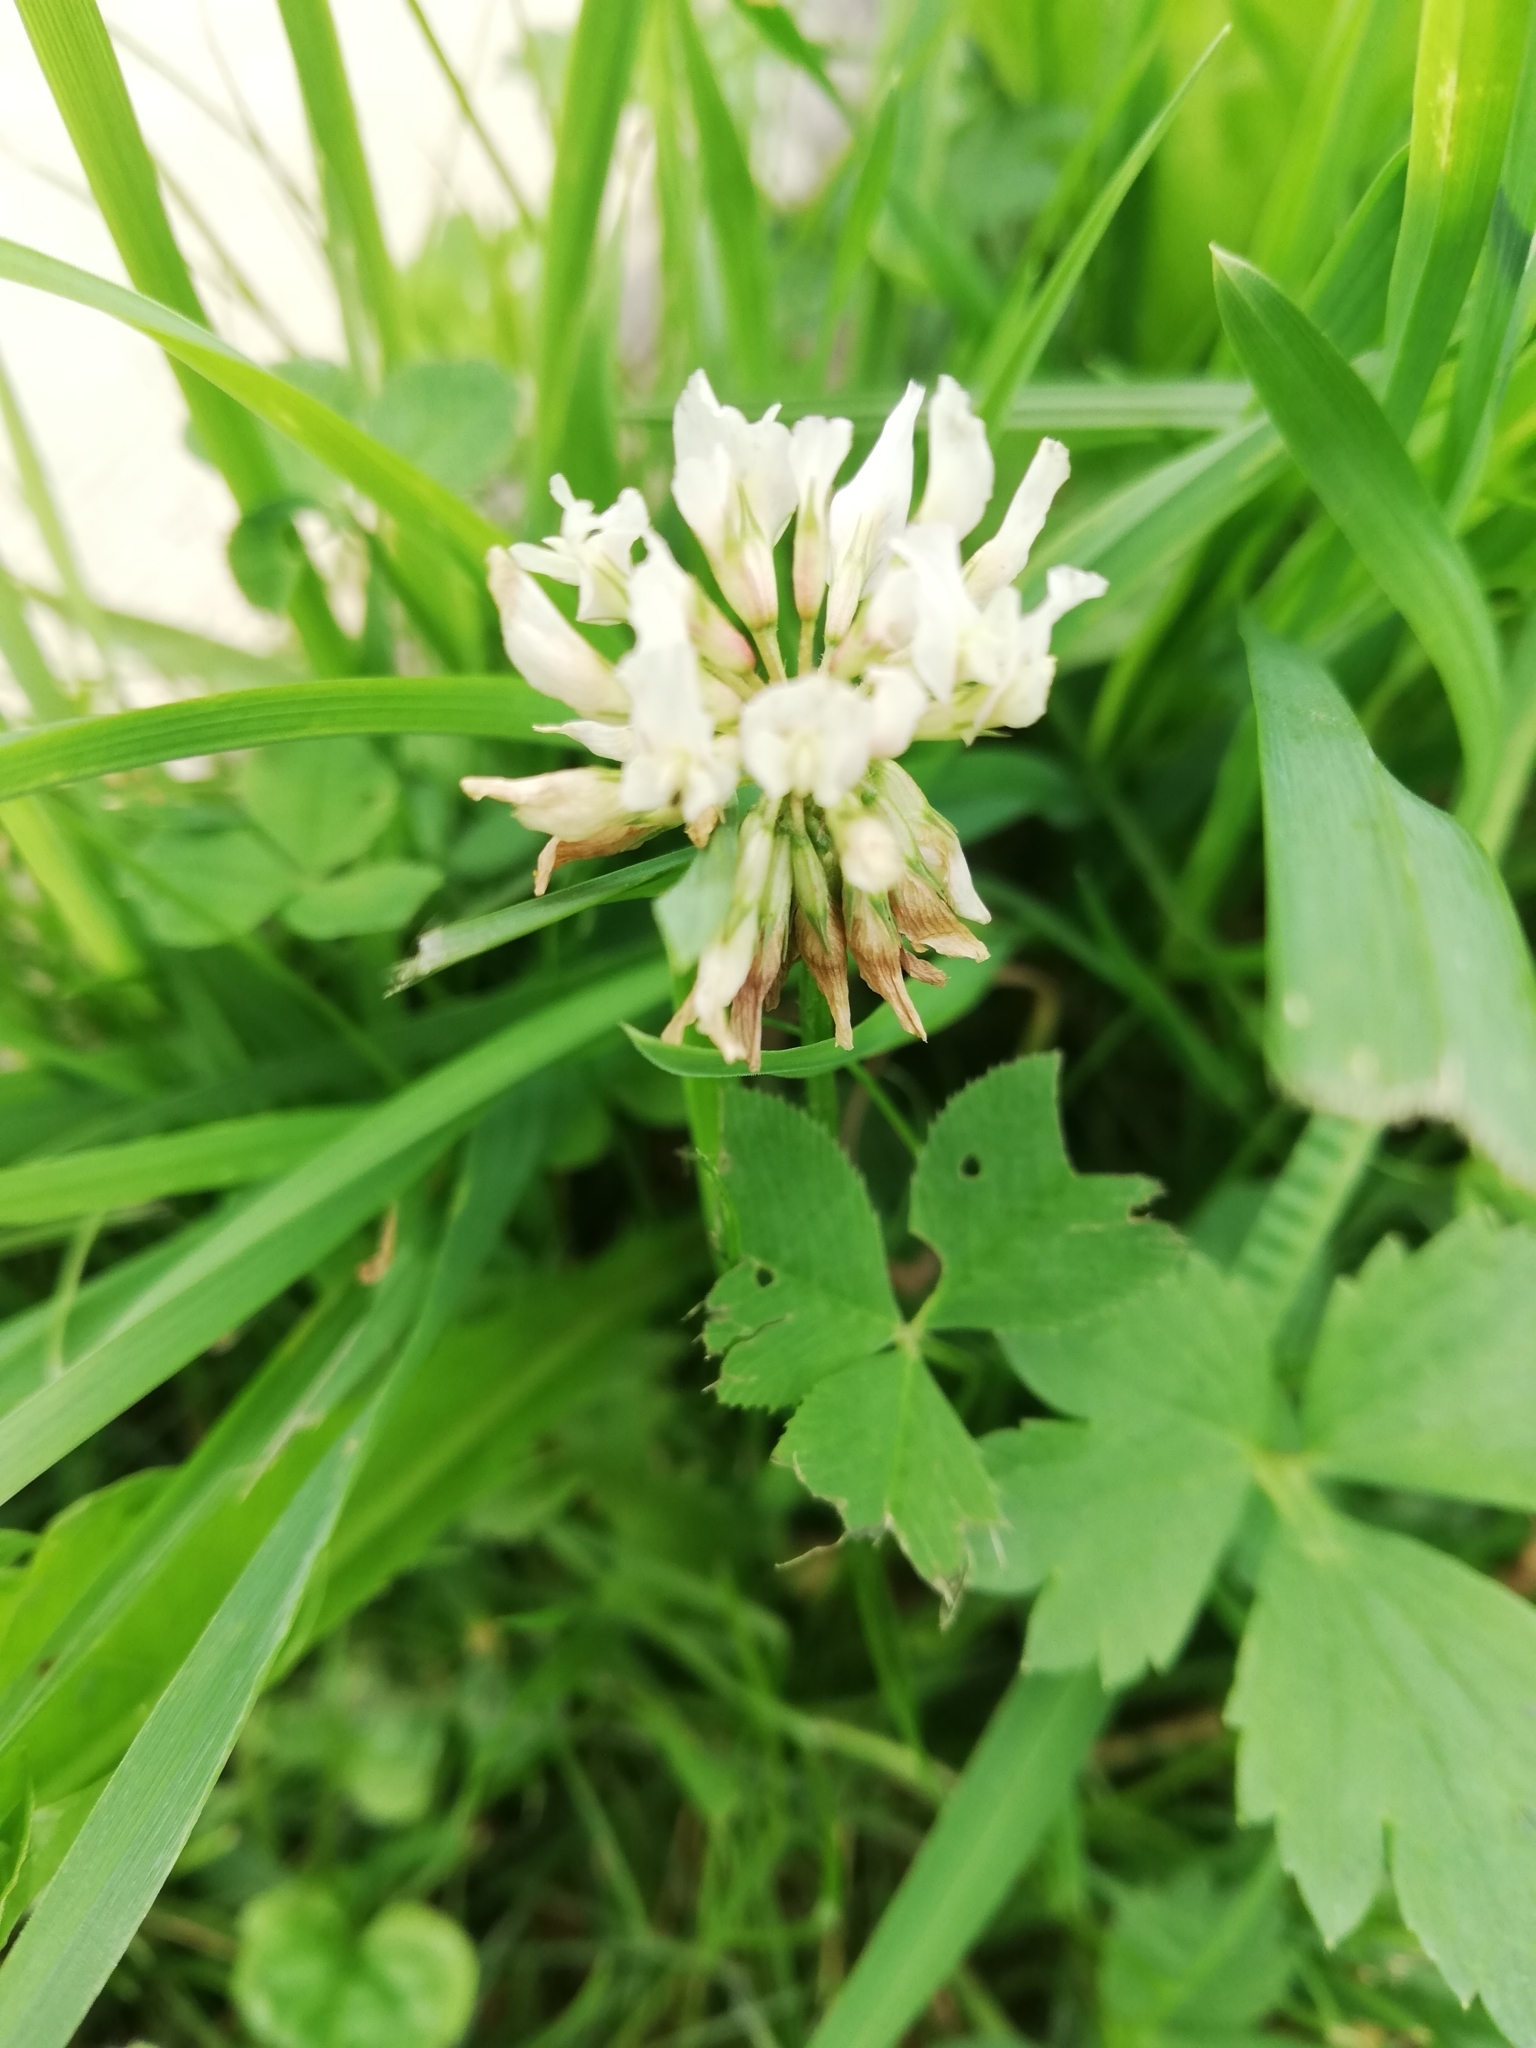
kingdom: Plantae
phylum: Tracheophyta
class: Magnoliopsida
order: Fabales
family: Fabaceae
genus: Trifolium
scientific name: Trifolium repens
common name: White clover
